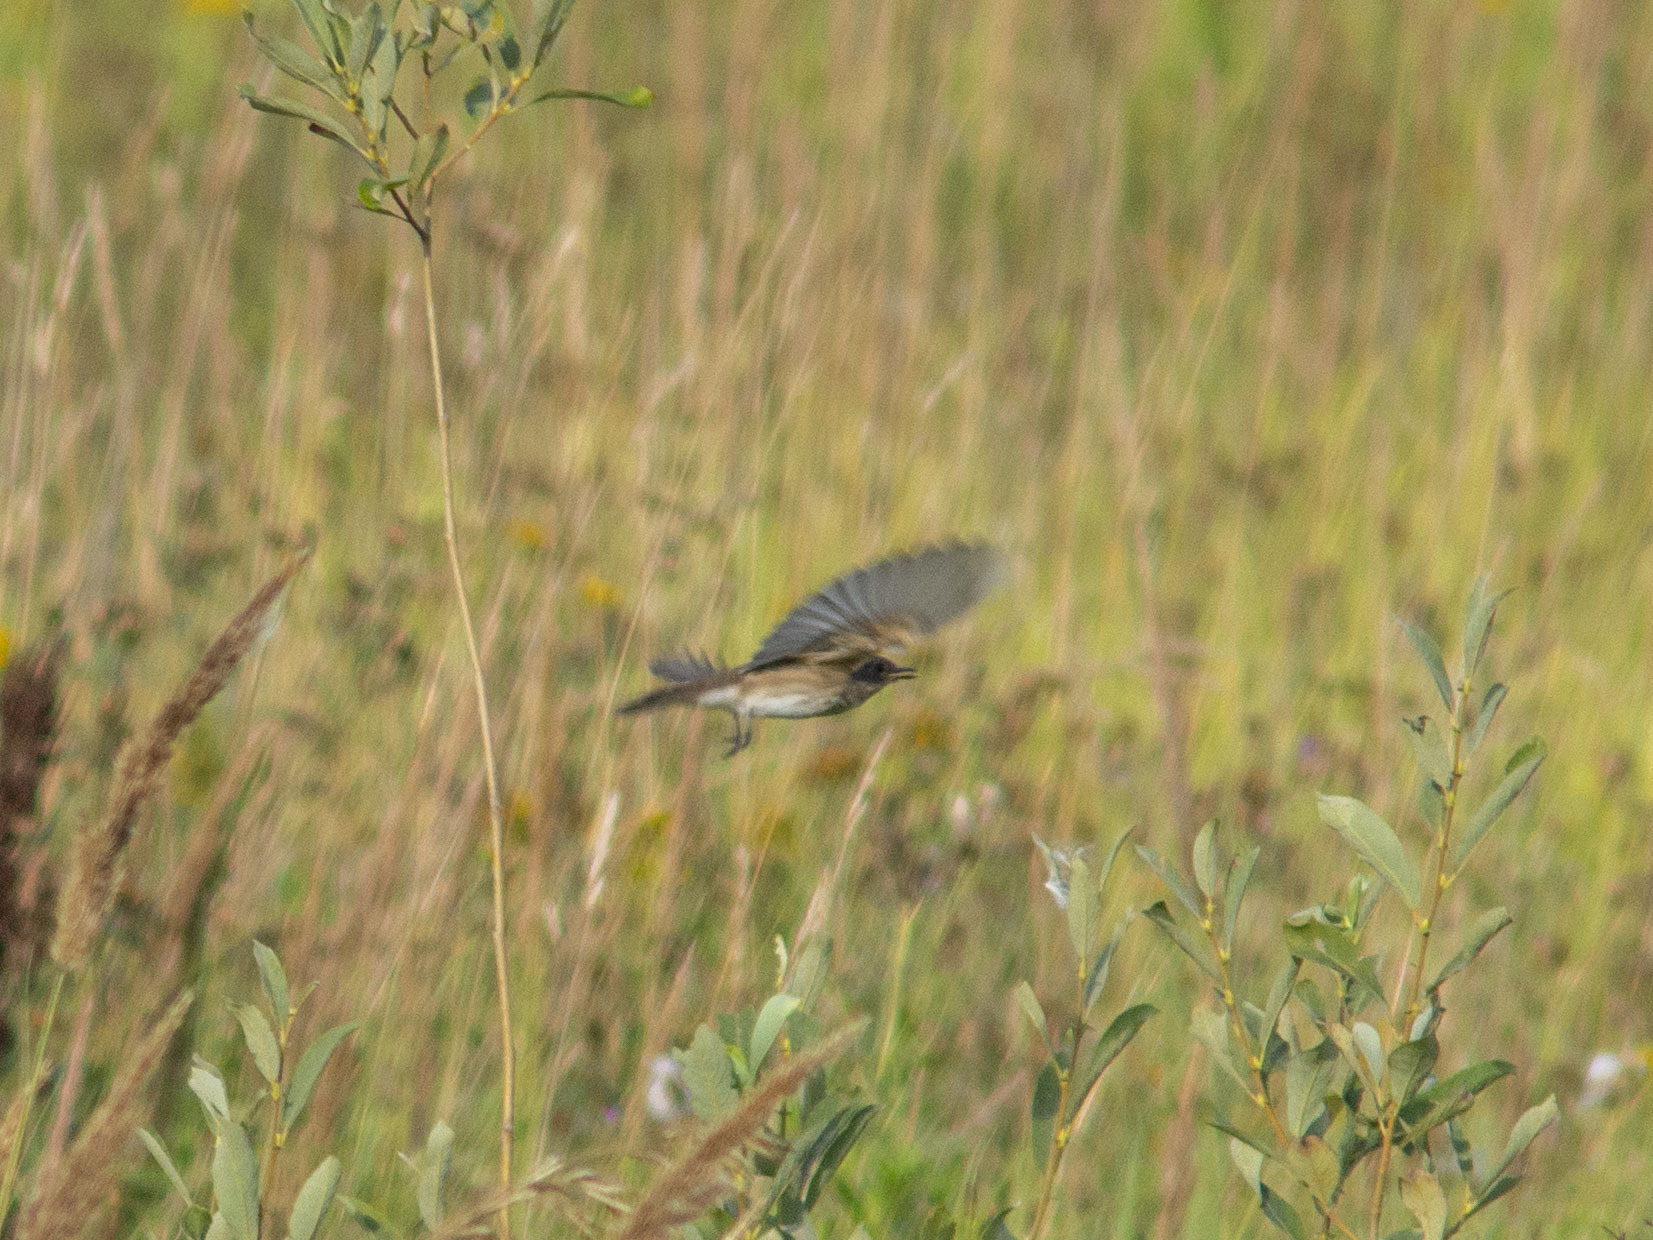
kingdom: Animalia
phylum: Chordata
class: Aves
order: Passeriformes
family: Muscicapidae
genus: Muscicapa
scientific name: Muscicapa striata
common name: Spotted flycatcher
